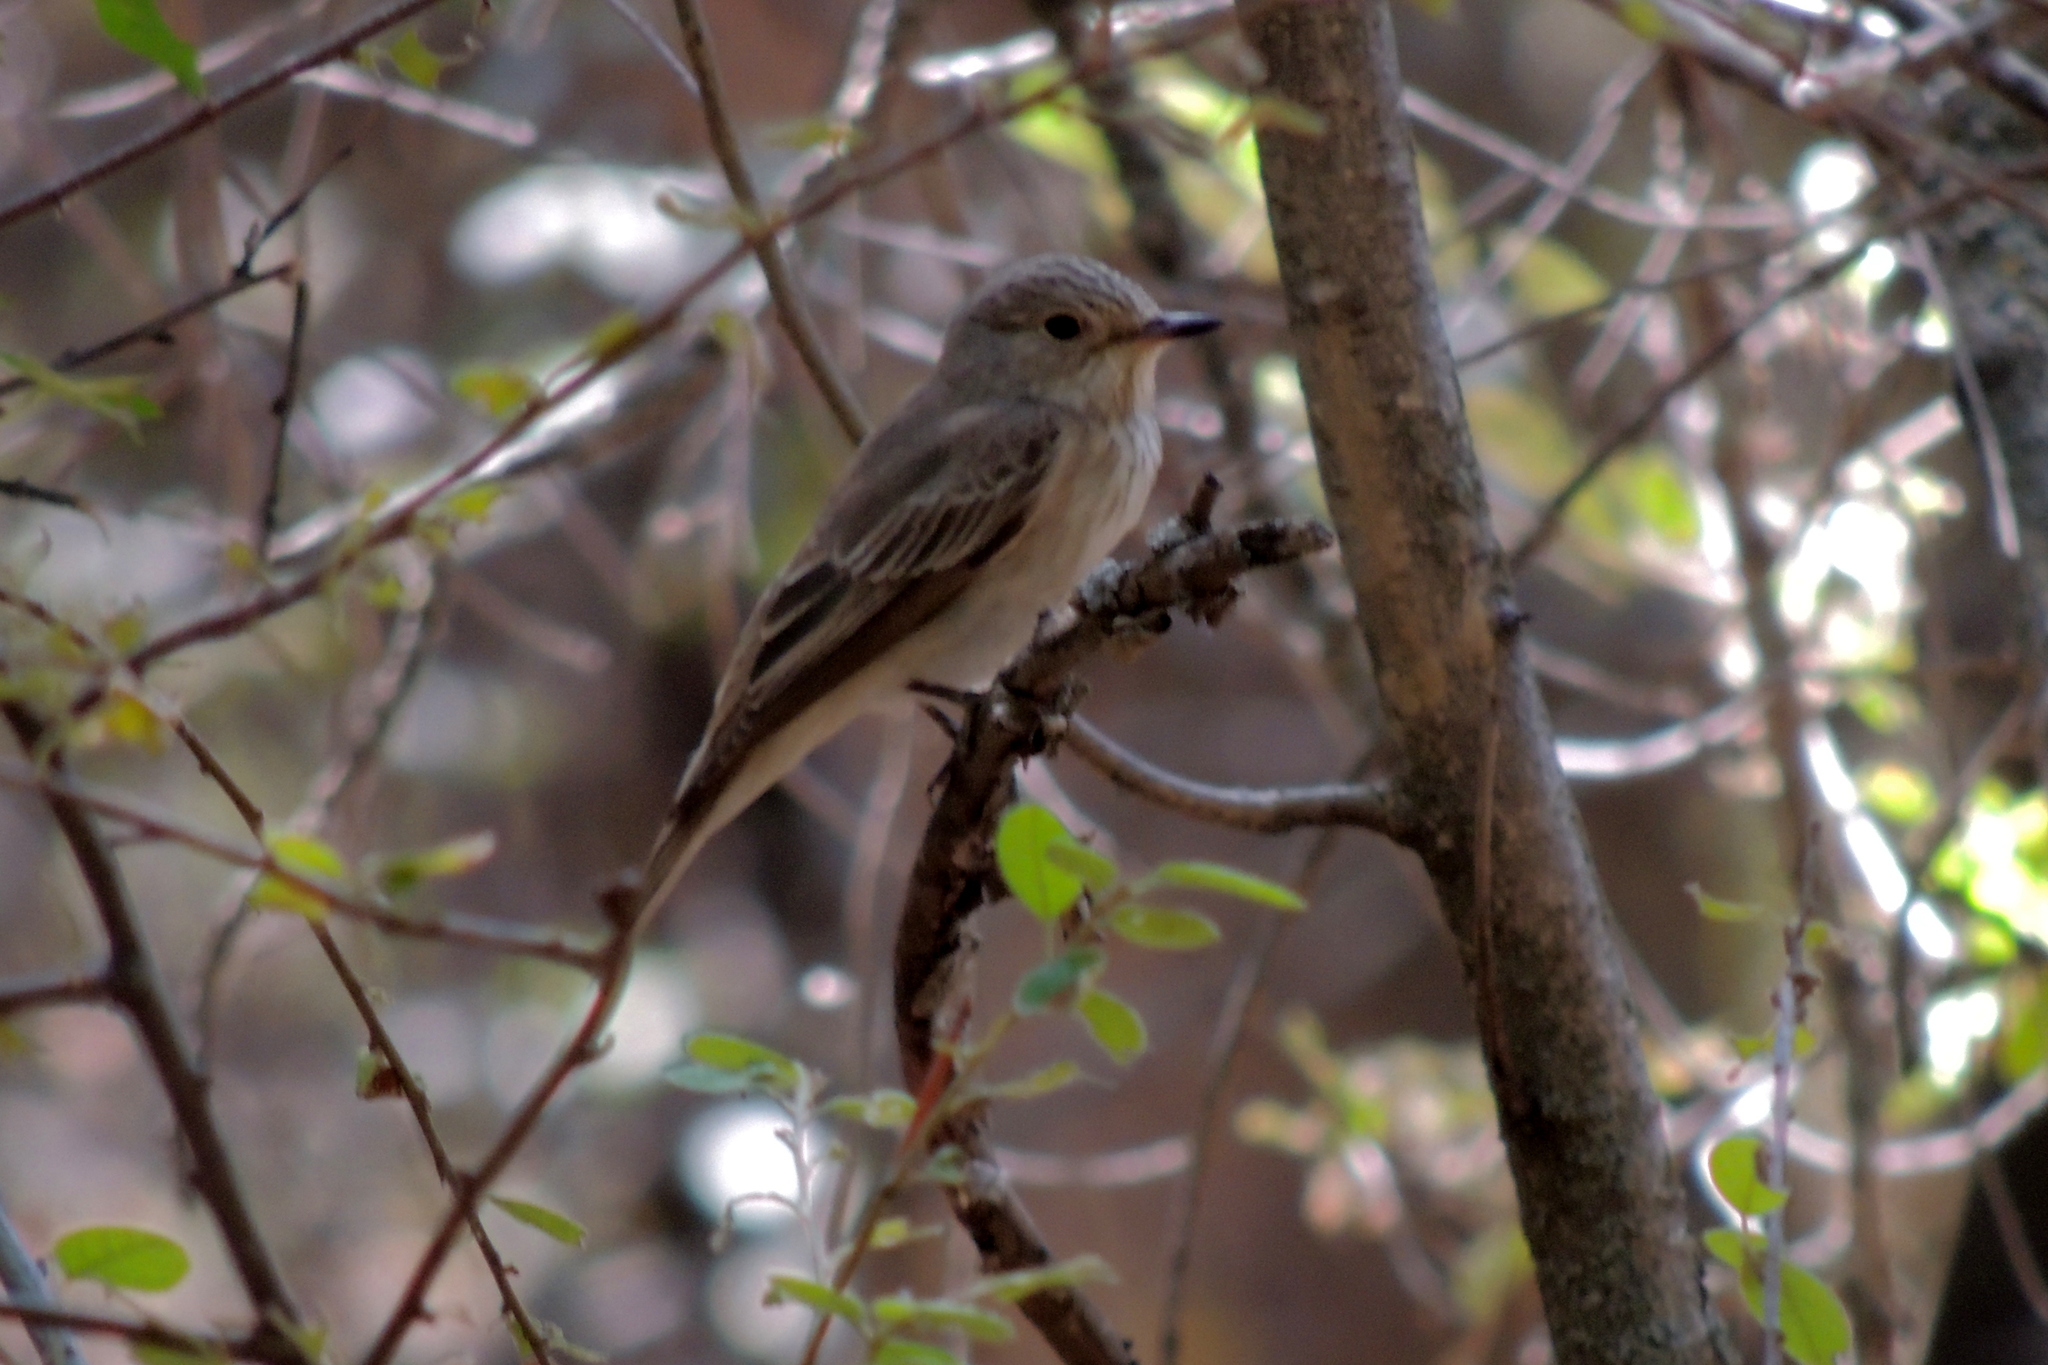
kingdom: Animalia
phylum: Chordata
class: Aves
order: Passeriformes
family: Muscicapidae
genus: Muscicapa
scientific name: Muscicapa striata
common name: Spotted flycatcher
